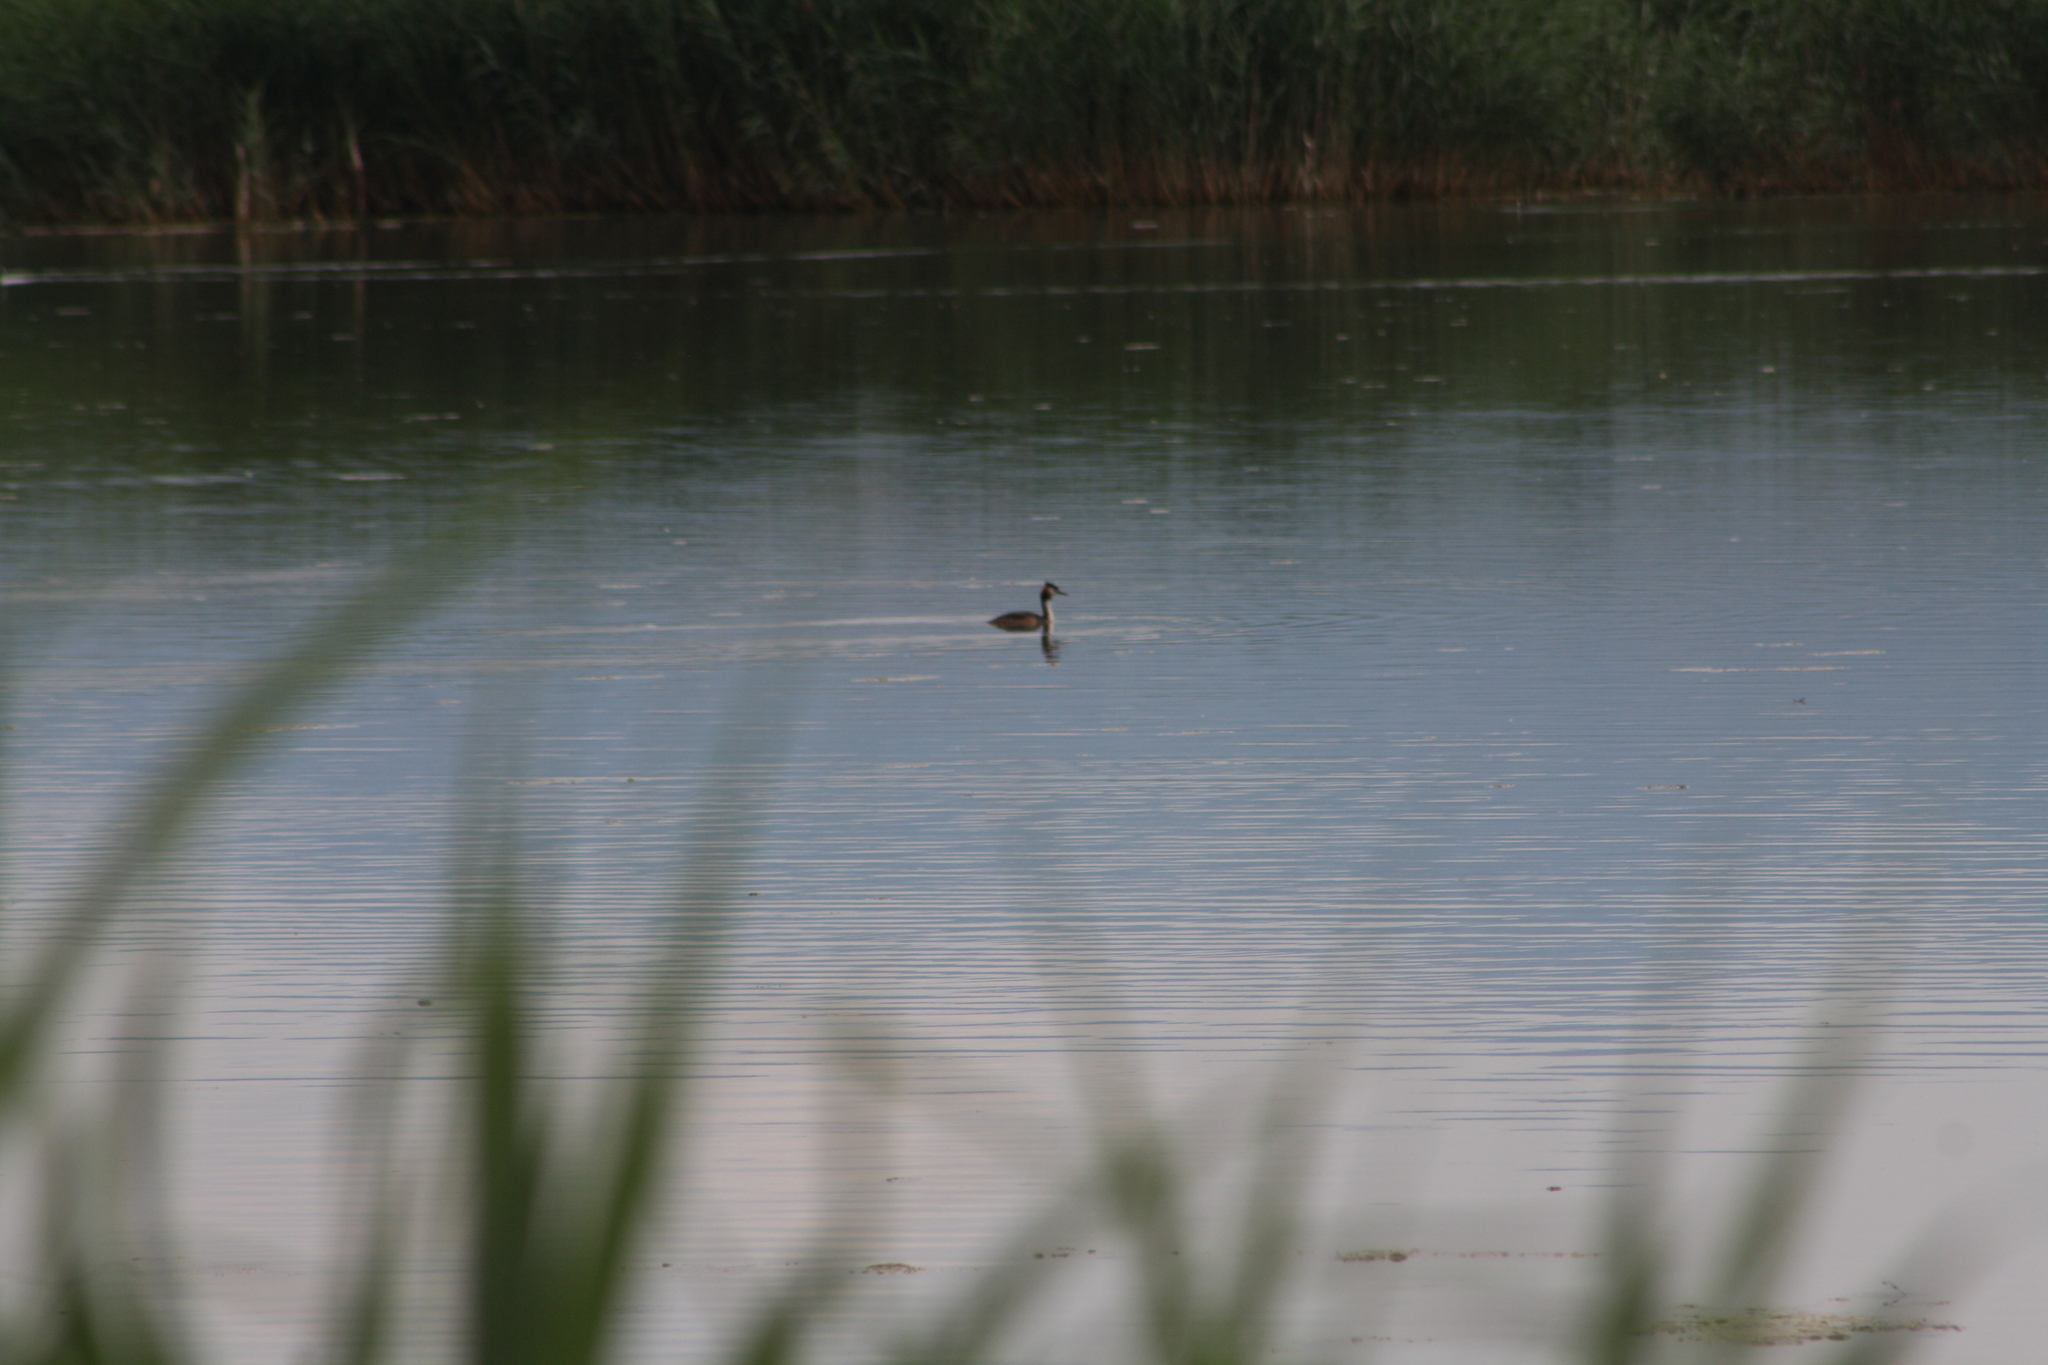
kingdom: Animalia
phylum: Chordata
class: Aves
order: Podicipediformes
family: Podicipedidae
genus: Podiceps
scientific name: Podiceps cristatus
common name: Great crested grebe
